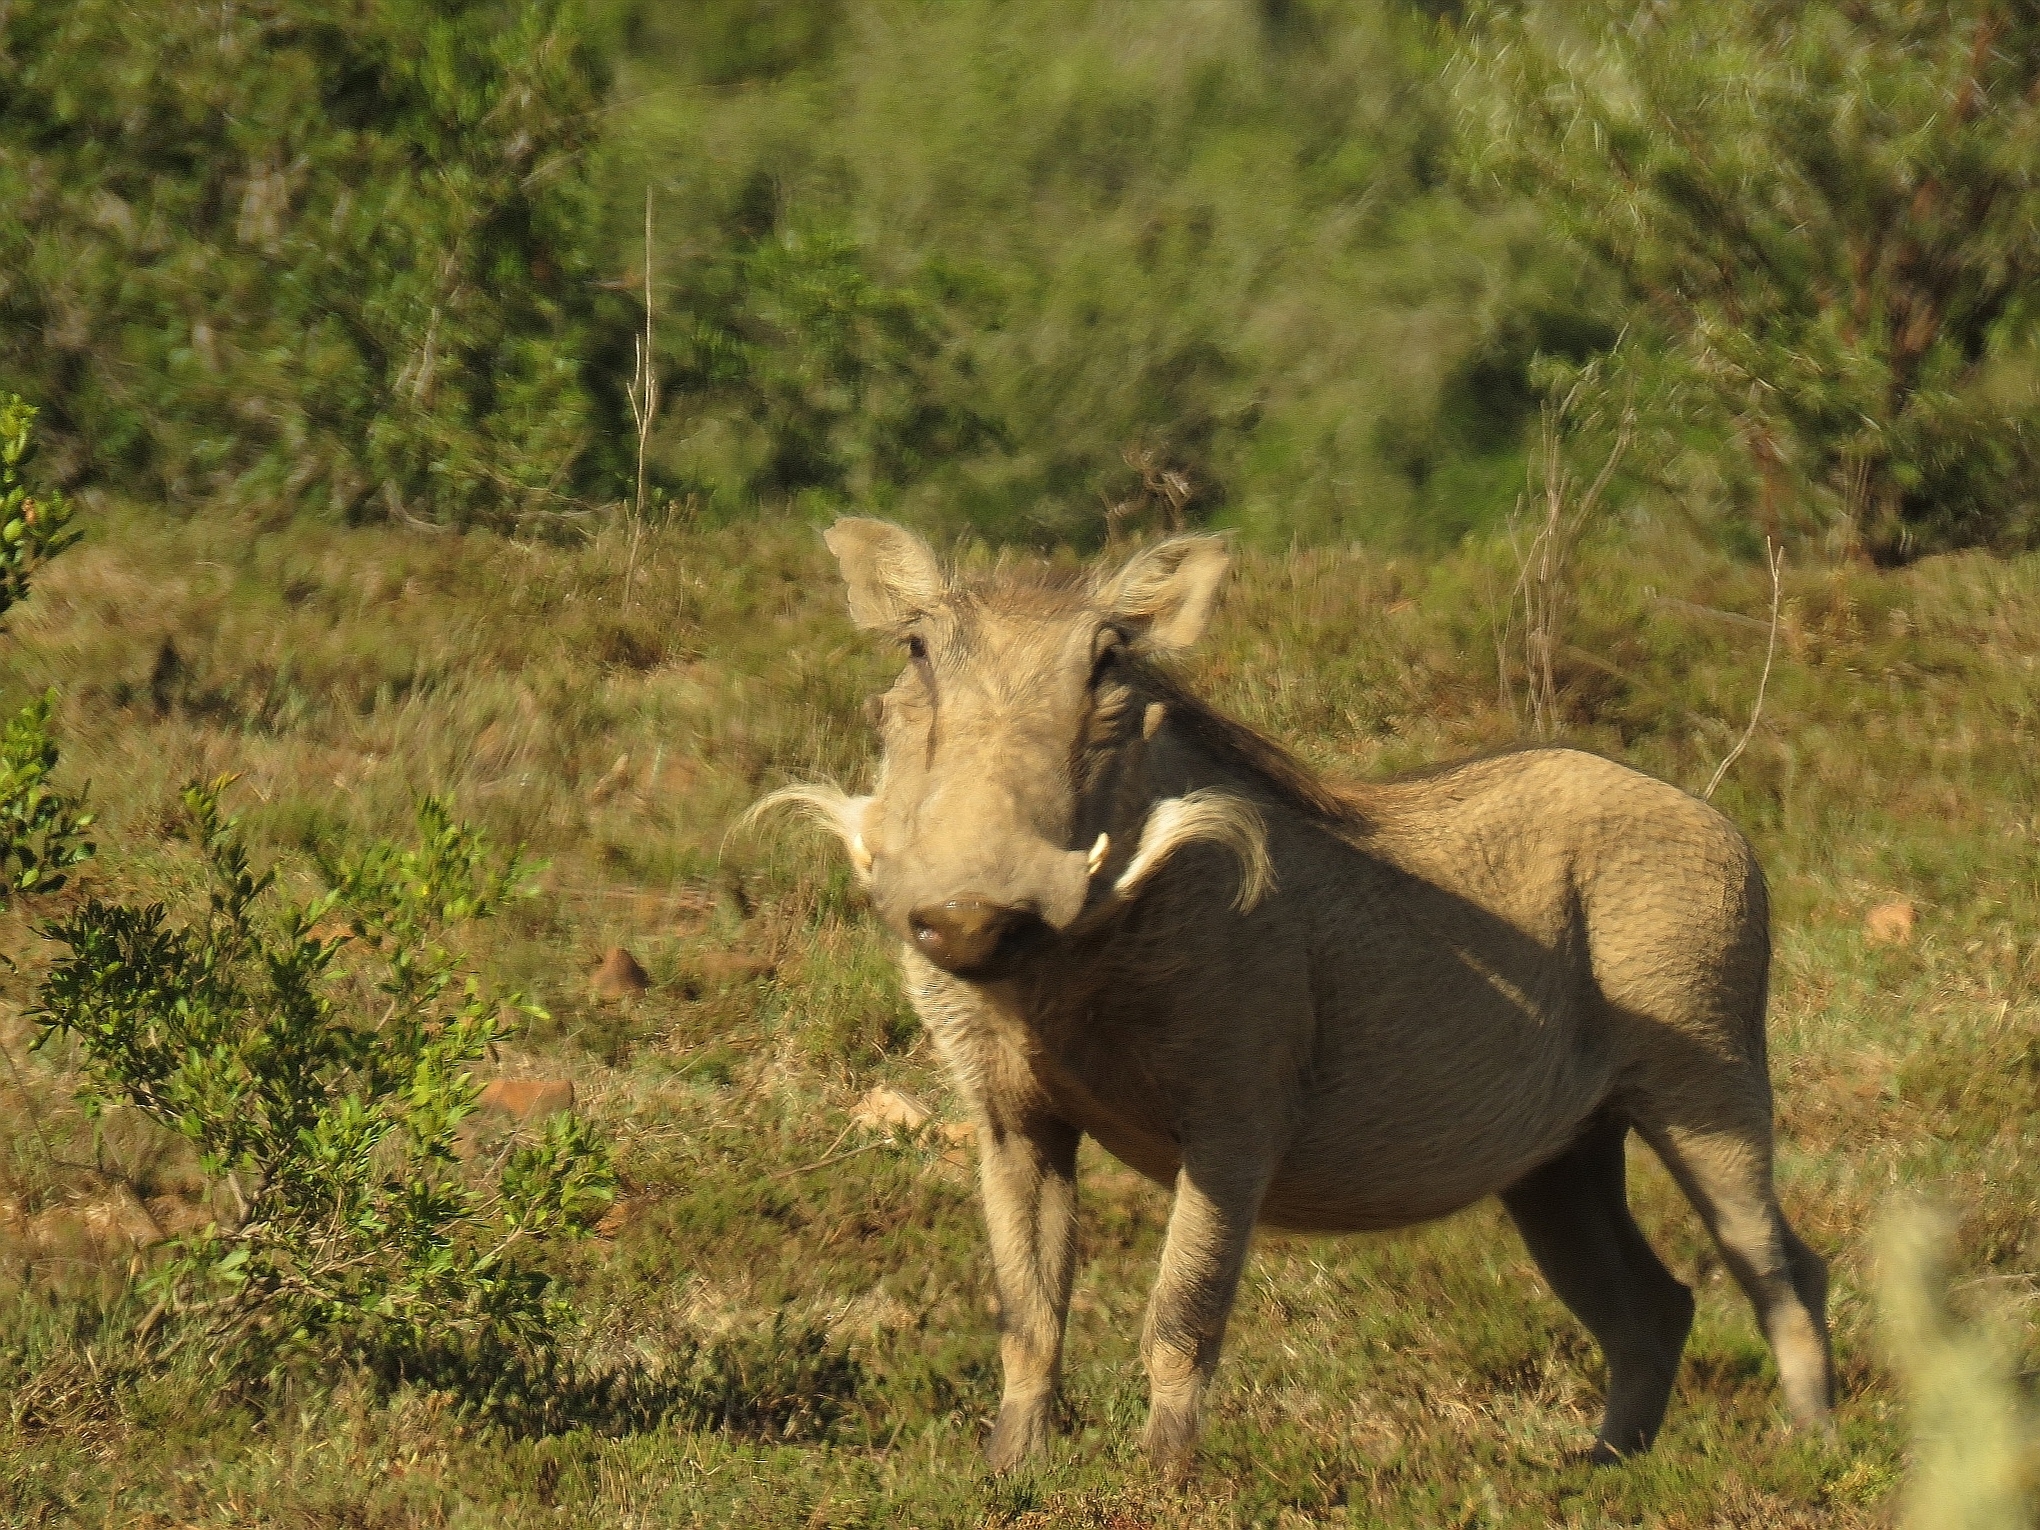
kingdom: Animalia
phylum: Chordata
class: Mammalia
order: Artiodactyla
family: Suidae
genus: Phacochoerus
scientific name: Phacochoerus africanus
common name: Common warthog
